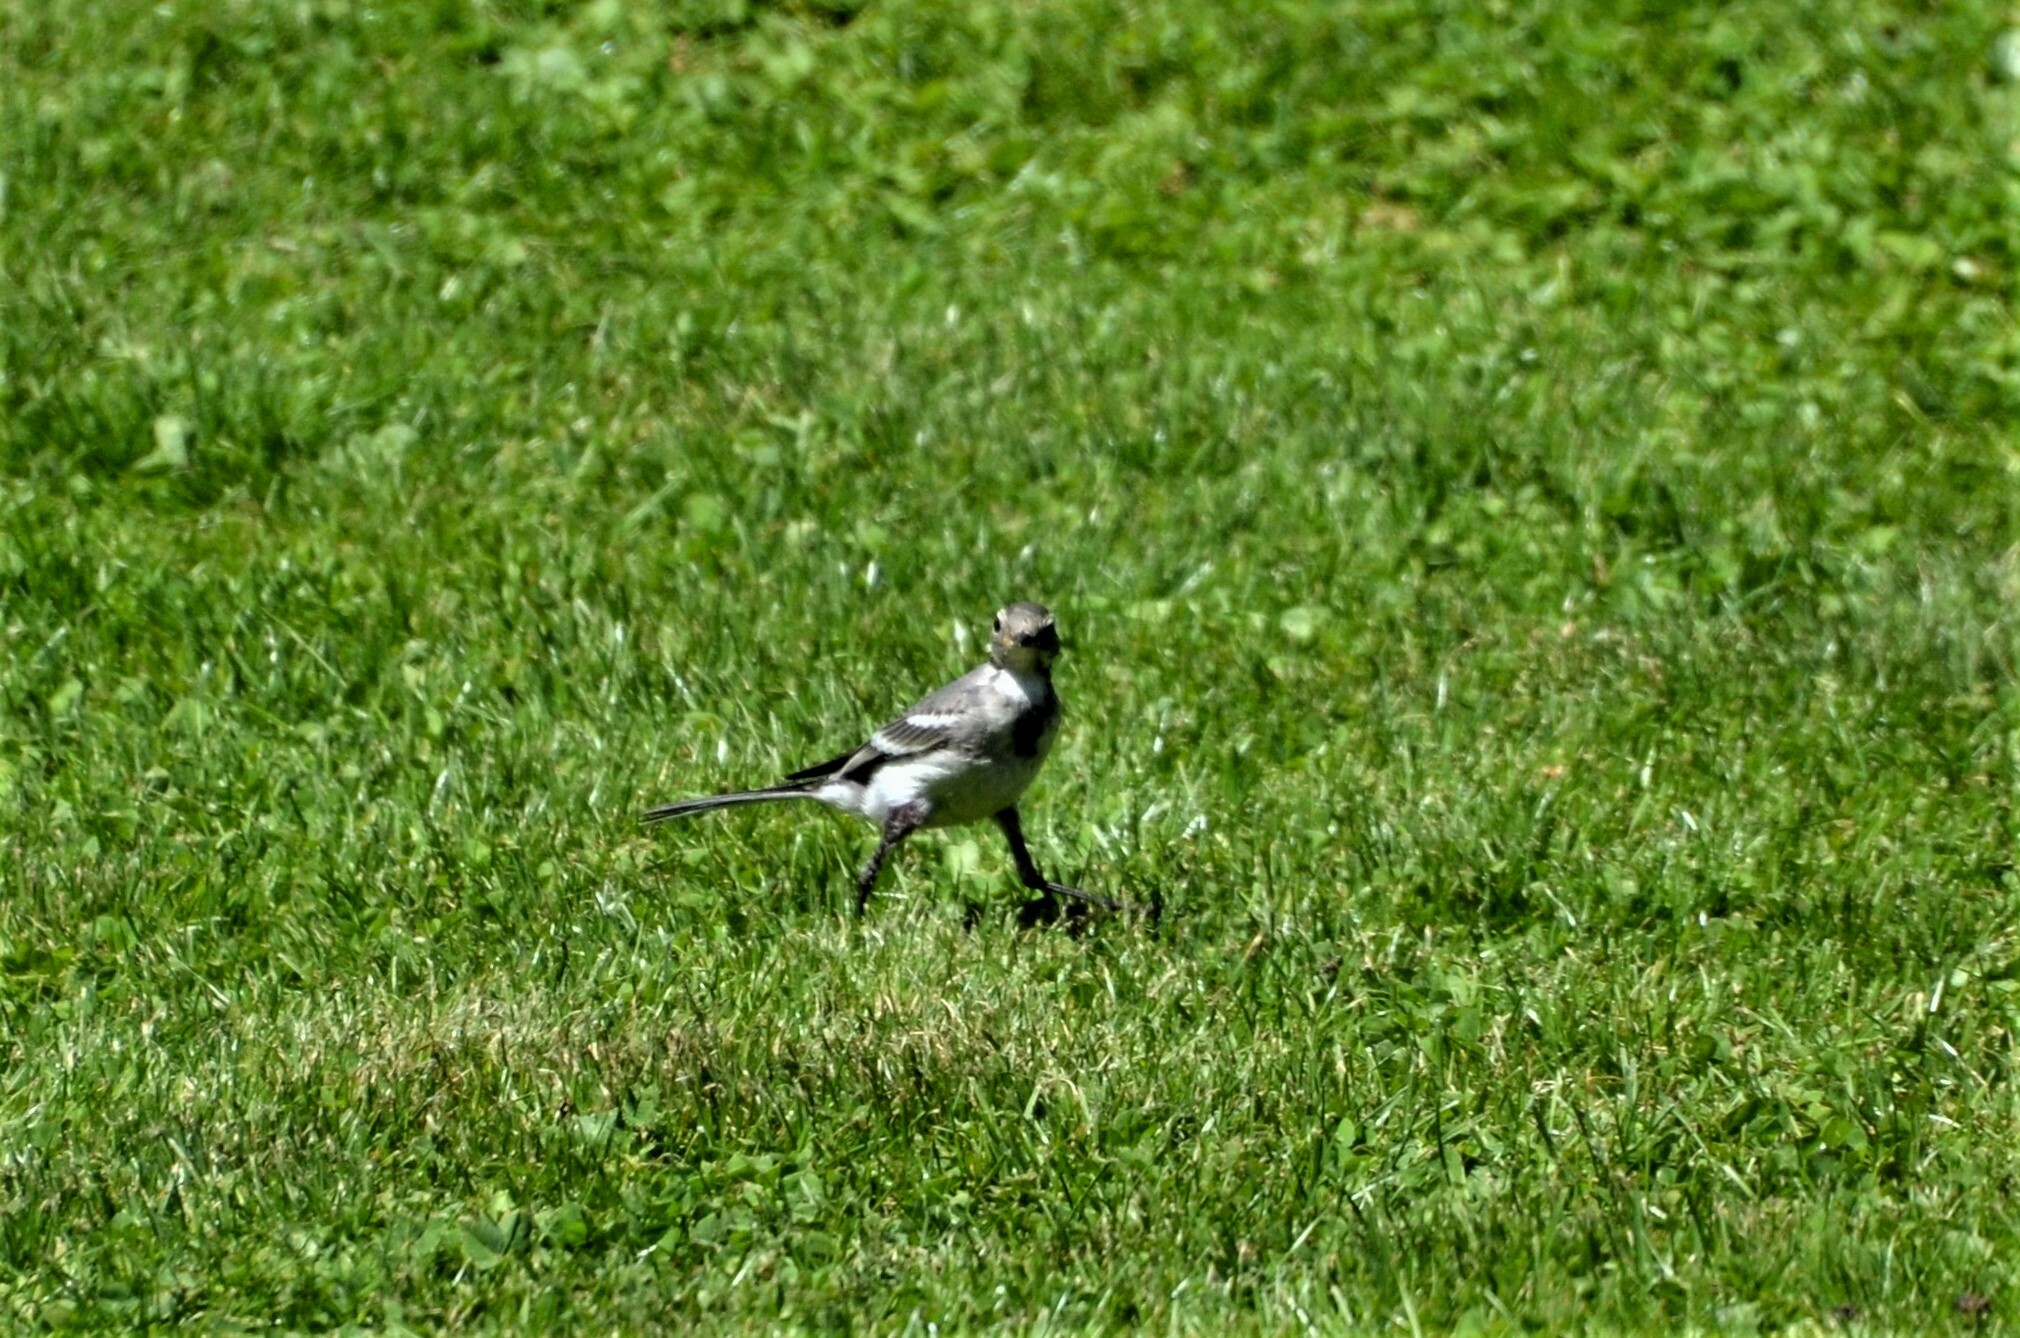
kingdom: Animalia
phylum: Chordata
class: Aves
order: Passeriformes
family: Motacillidae
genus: Motacilla
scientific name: Motacilla alba
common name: White wagtail
